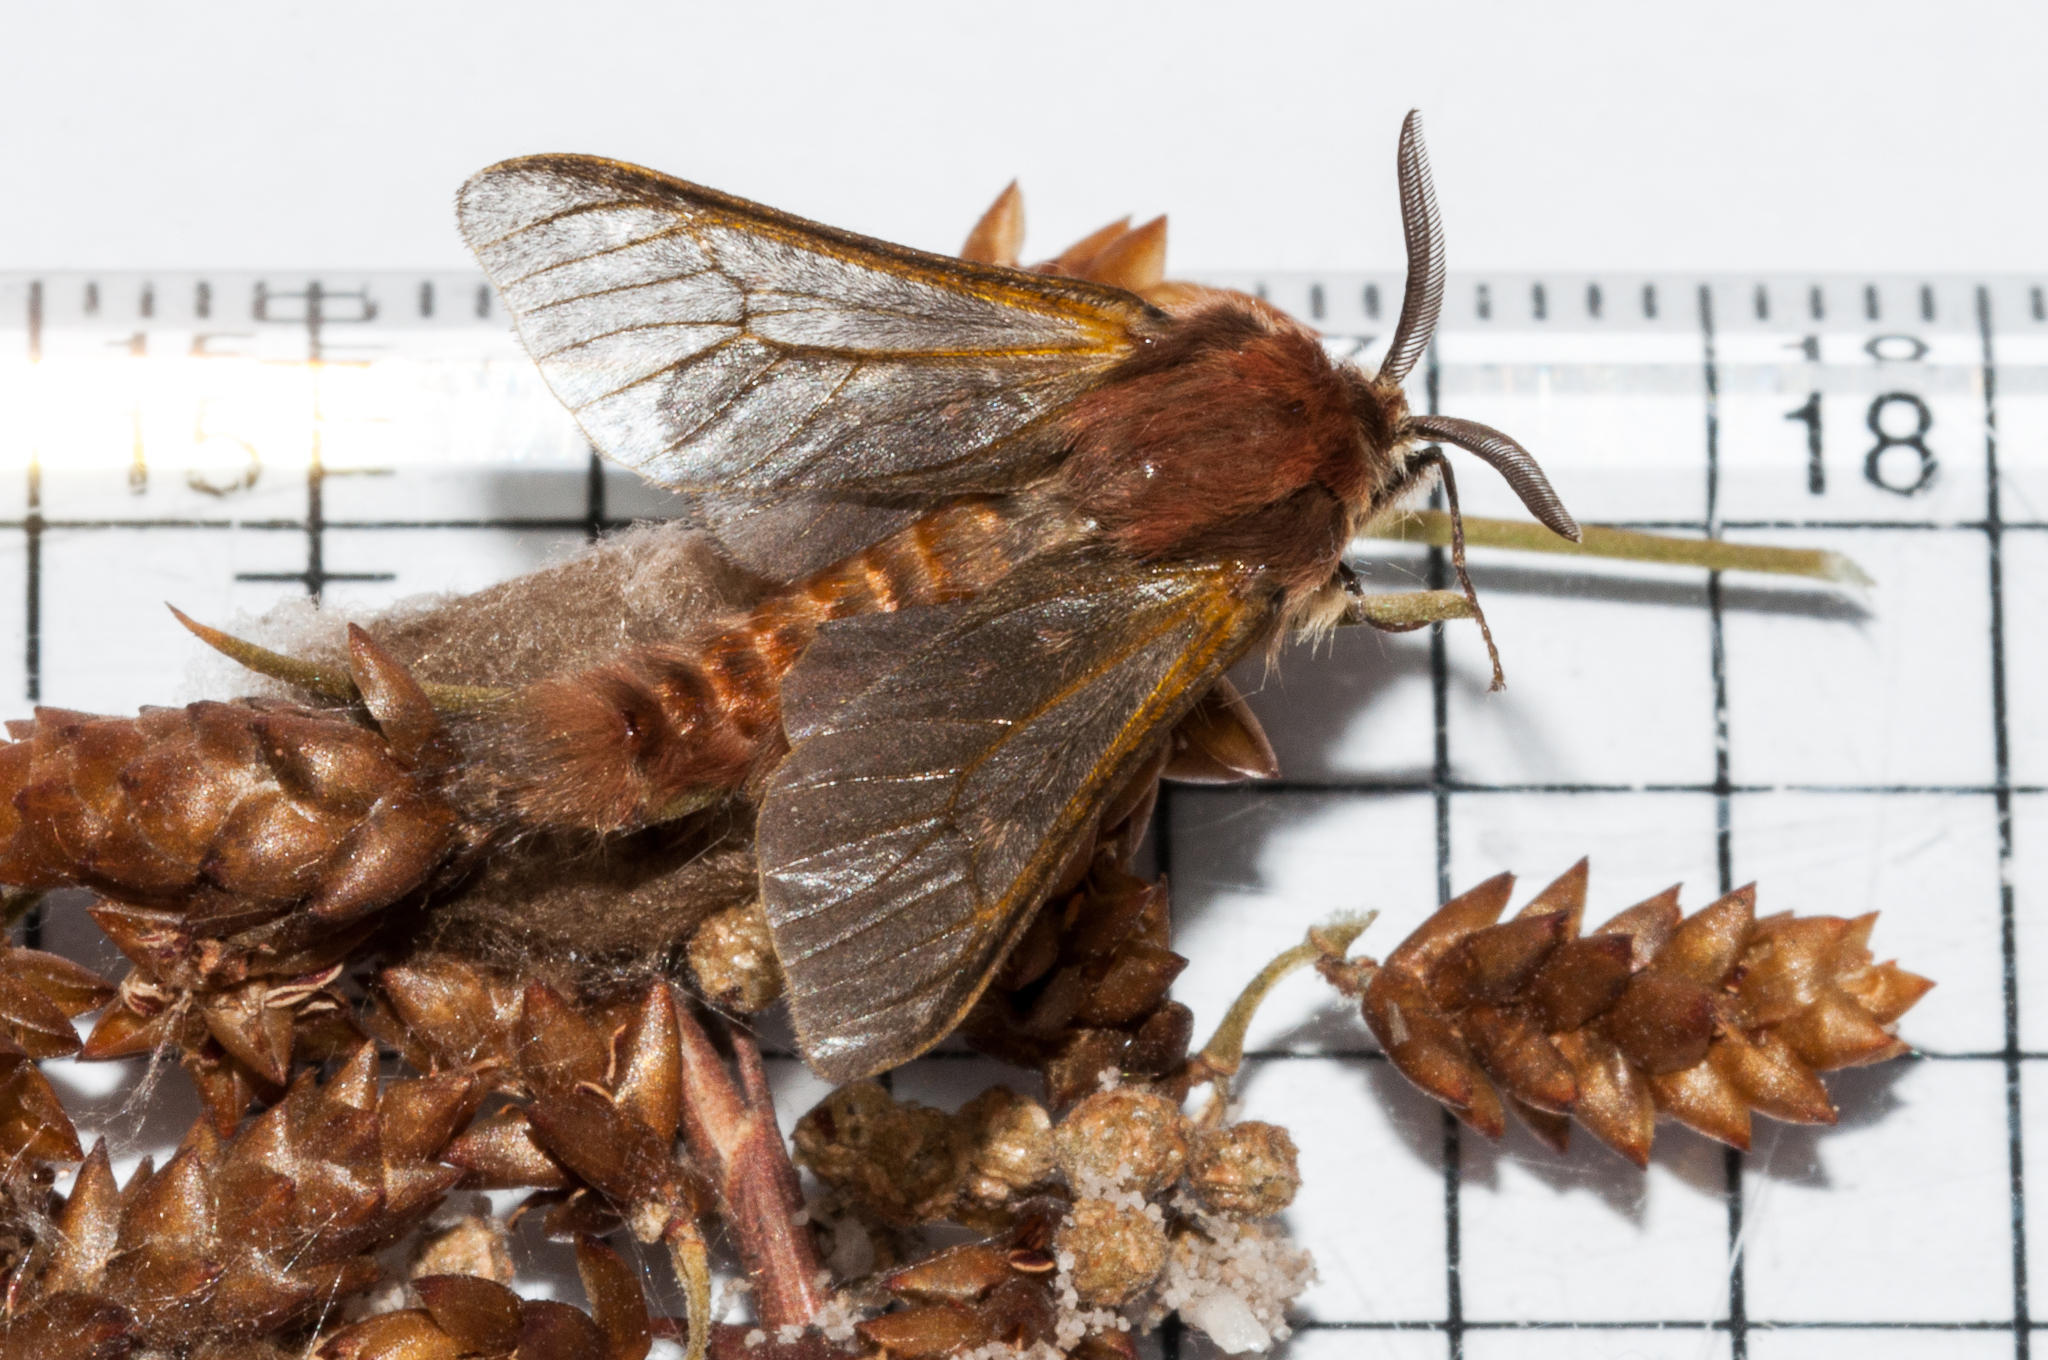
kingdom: Animalia
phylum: Arthropoda
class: Insecta
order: Lepidoptera
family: Somabrachyidae
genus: Psycharium
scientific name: Psycharium pellucens
